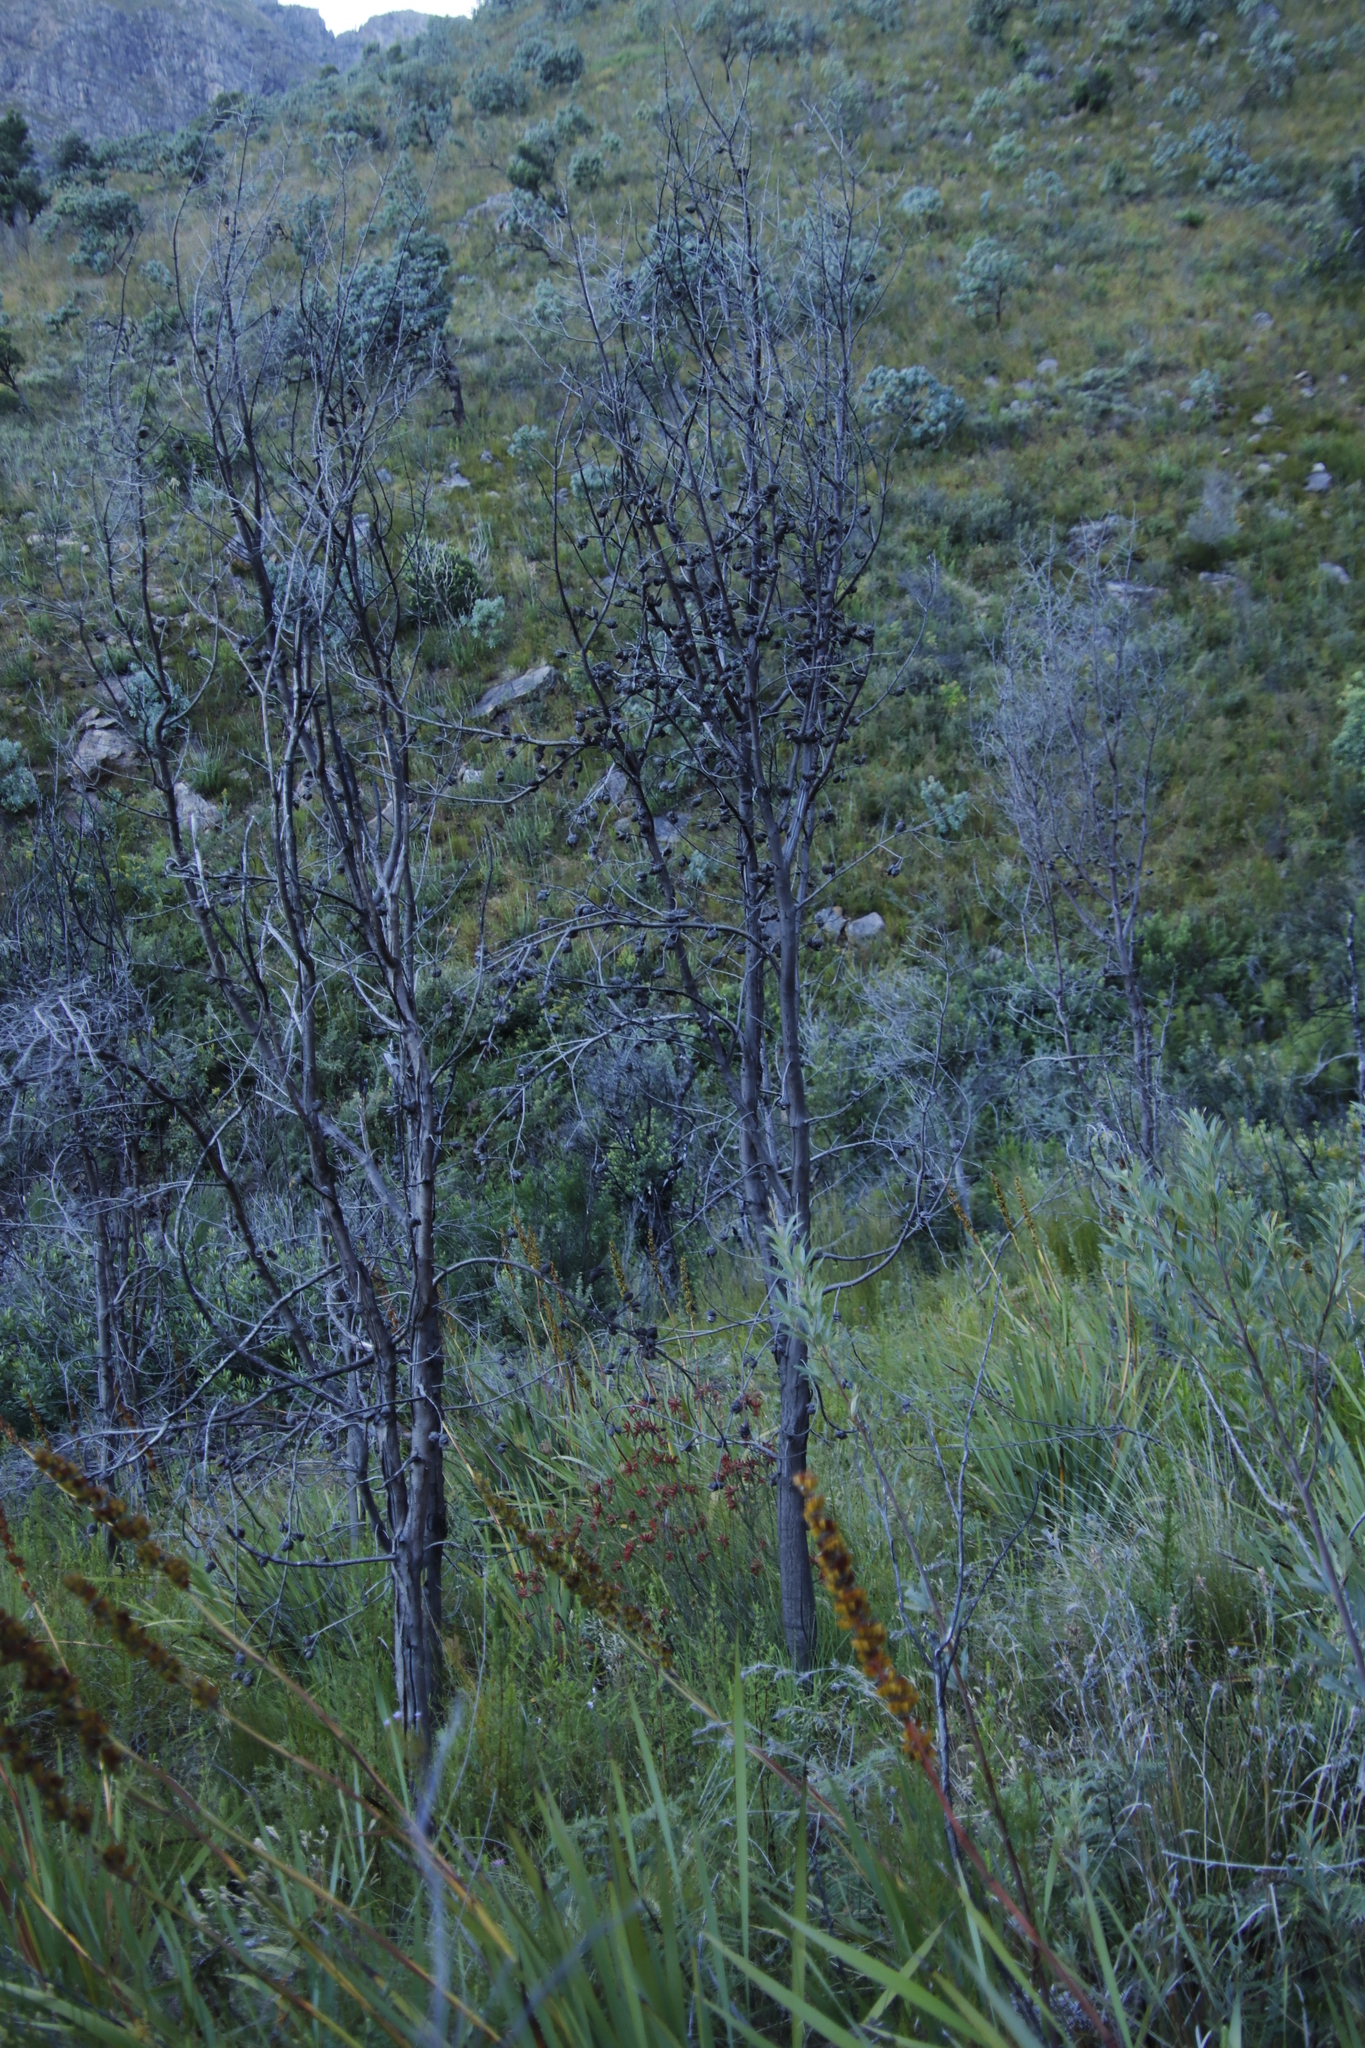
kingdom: Plantae
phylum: Tracheophyta
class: Magnoliopsida
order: Proteales
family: Proteaceae
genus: Hakea
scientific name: Hakea sericea
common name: Needle bush
